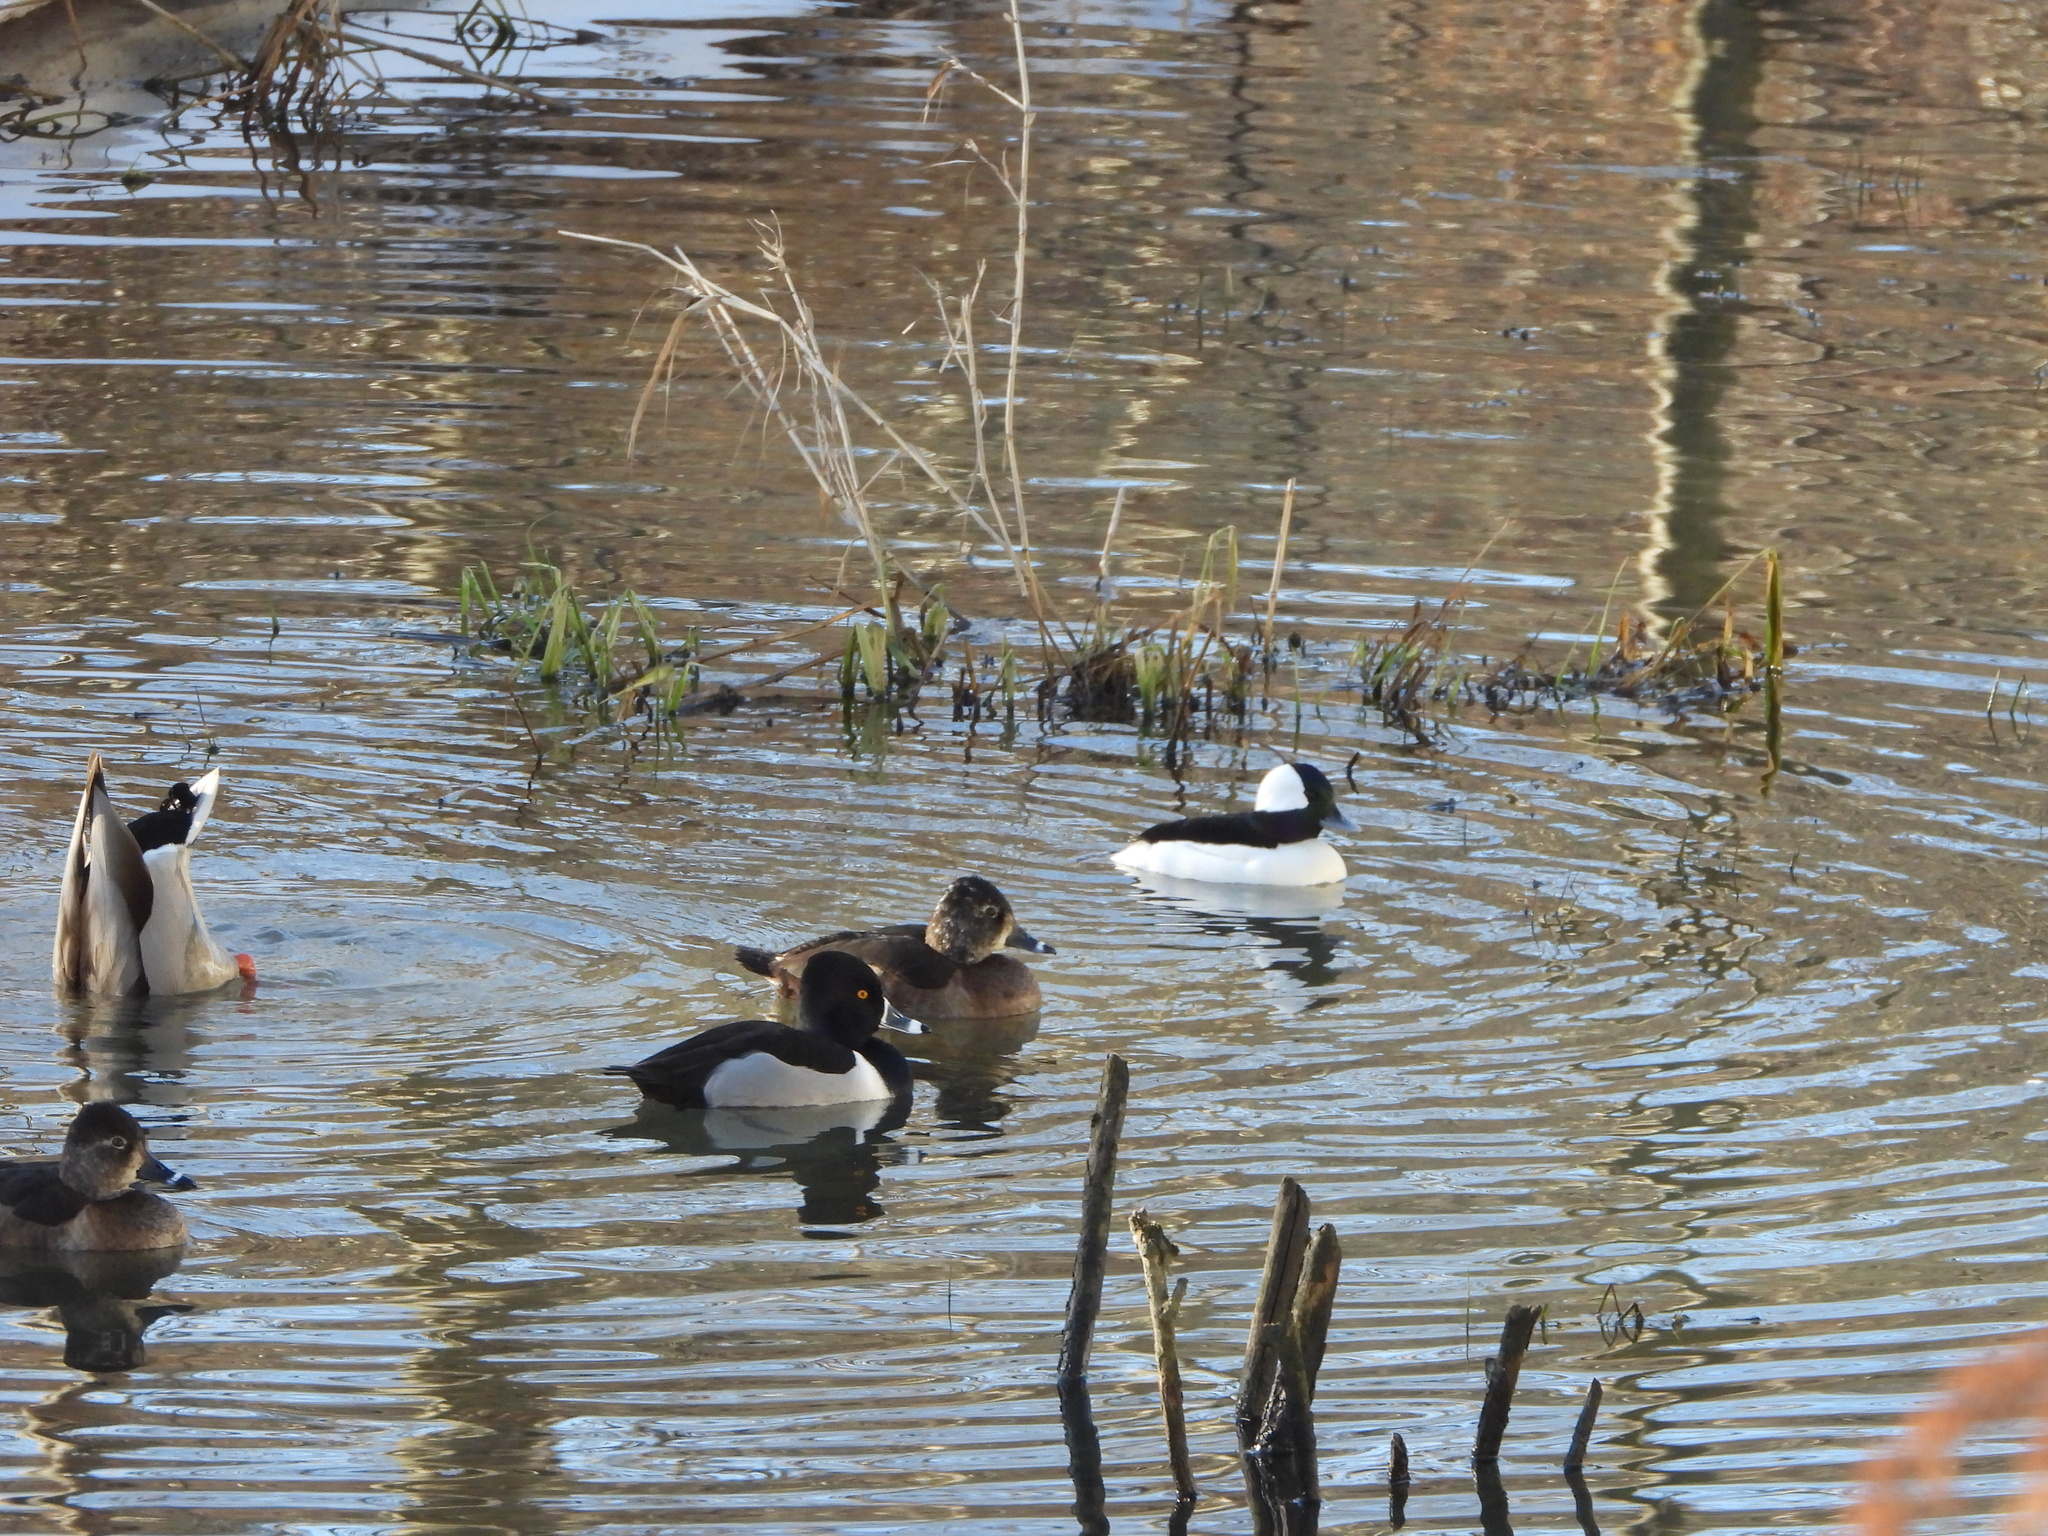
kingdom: Animalia
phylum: Chordata
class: Aves
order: Anseriformes
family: Anatidae
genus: Aythya
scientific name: Aythya collaris
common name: Ring-necked duck
